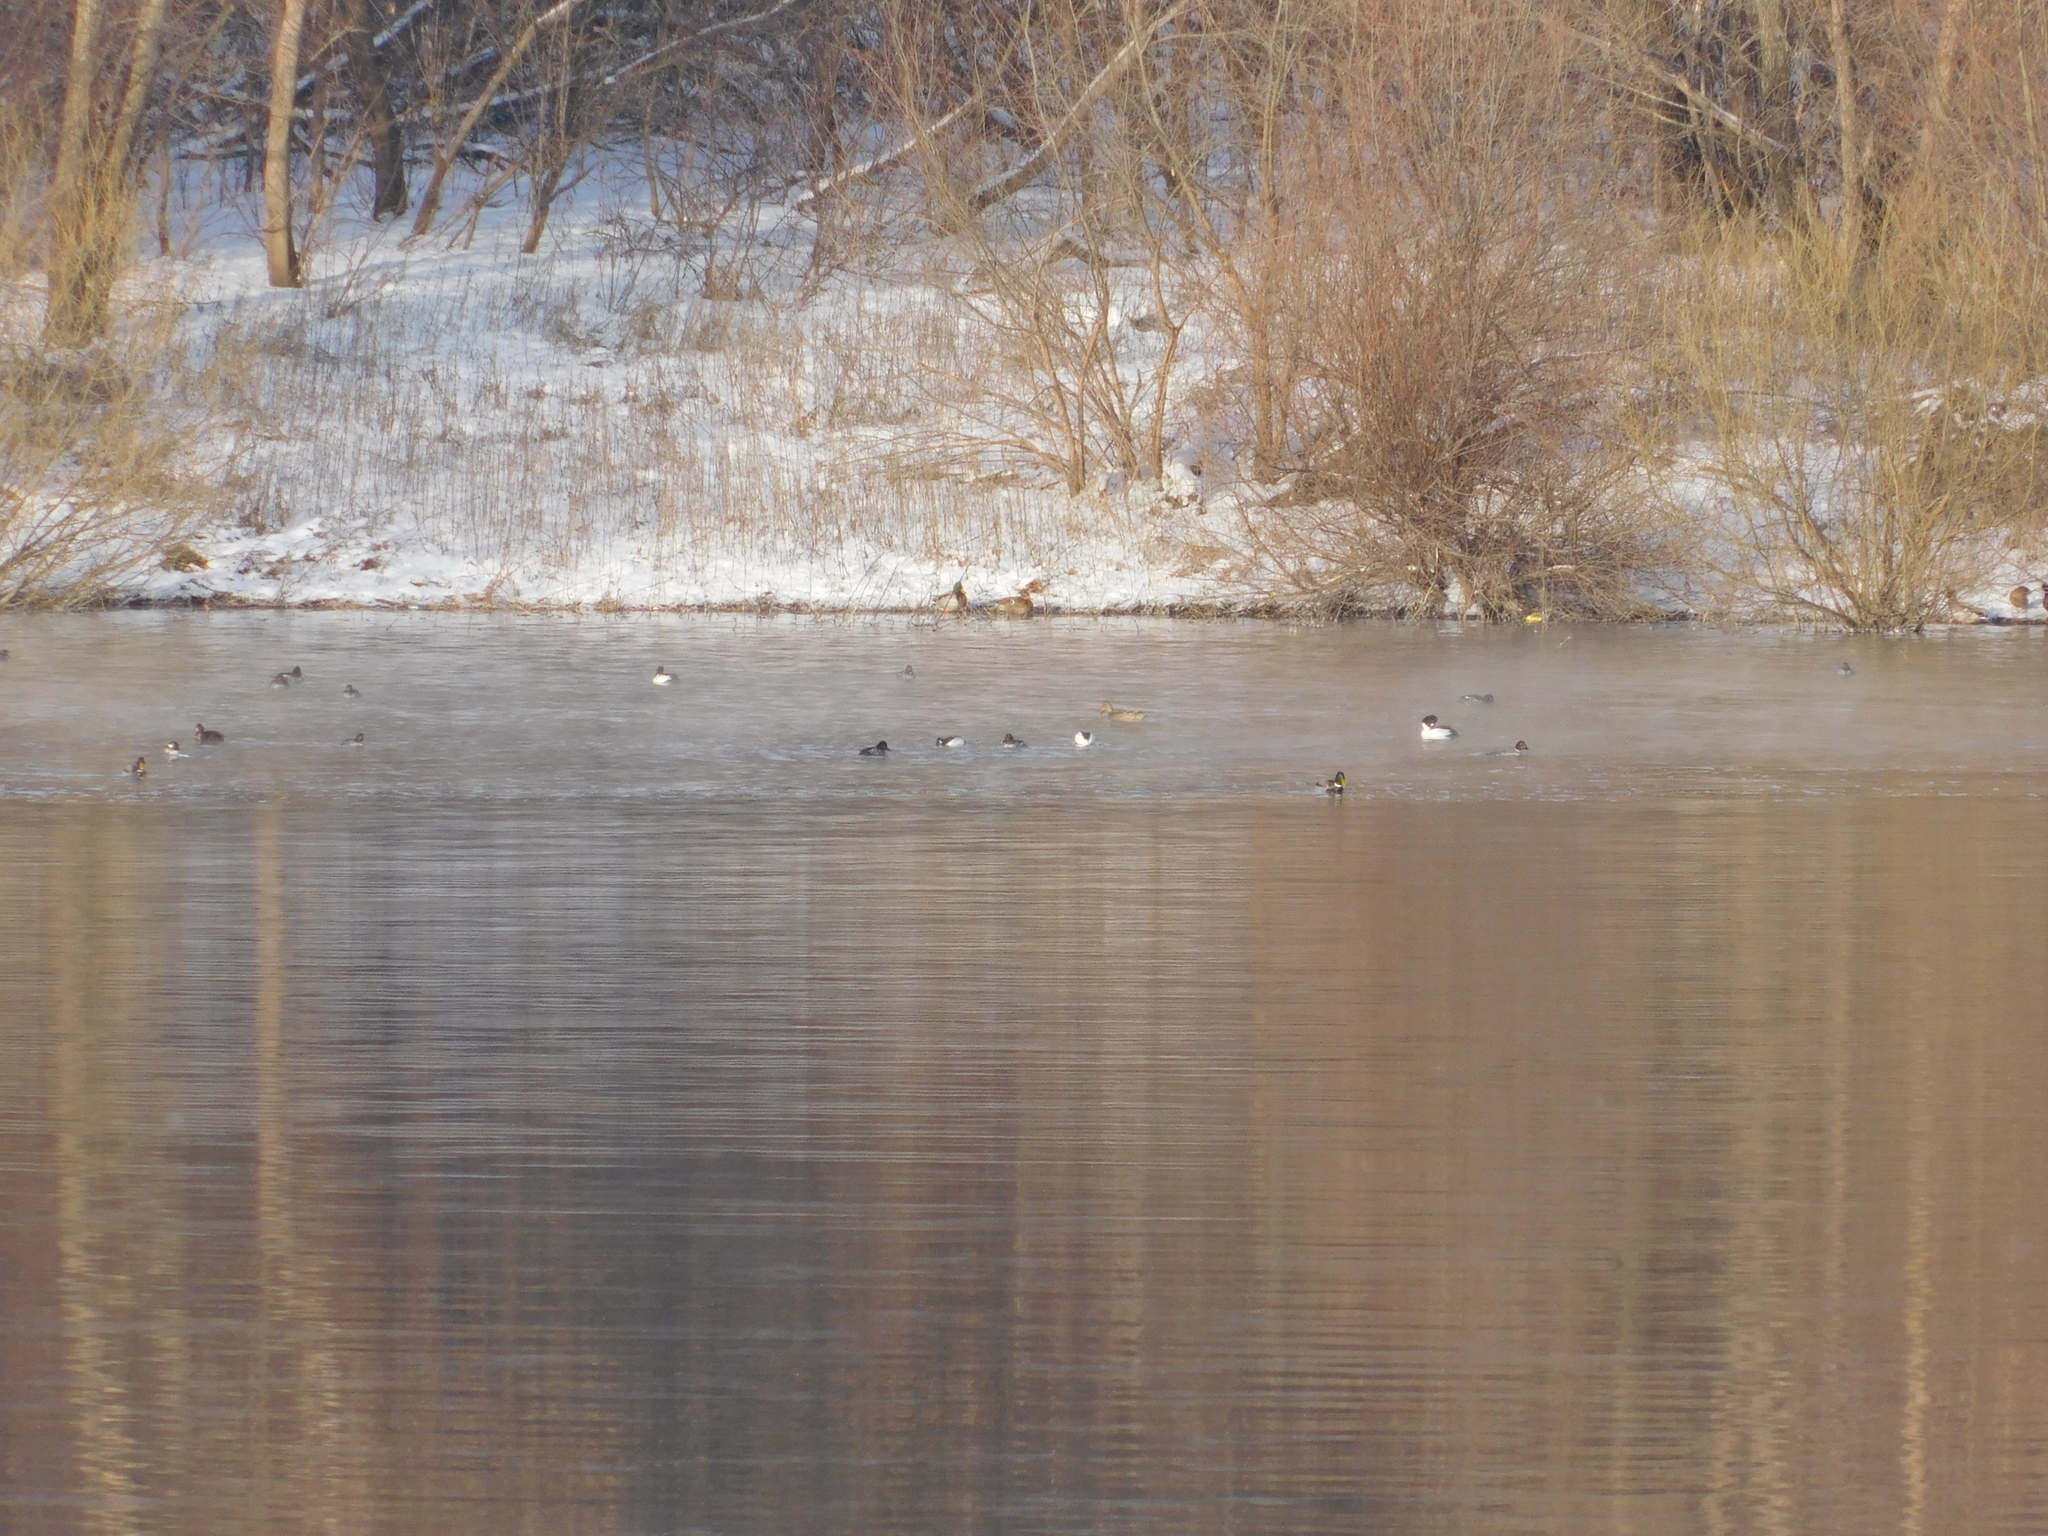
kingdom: Animalia
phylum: Chordata
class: Aves
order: Anseriformes
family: Anatidae
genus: Bucephala
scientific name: Bucephala clangula
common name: Common goldeneye
